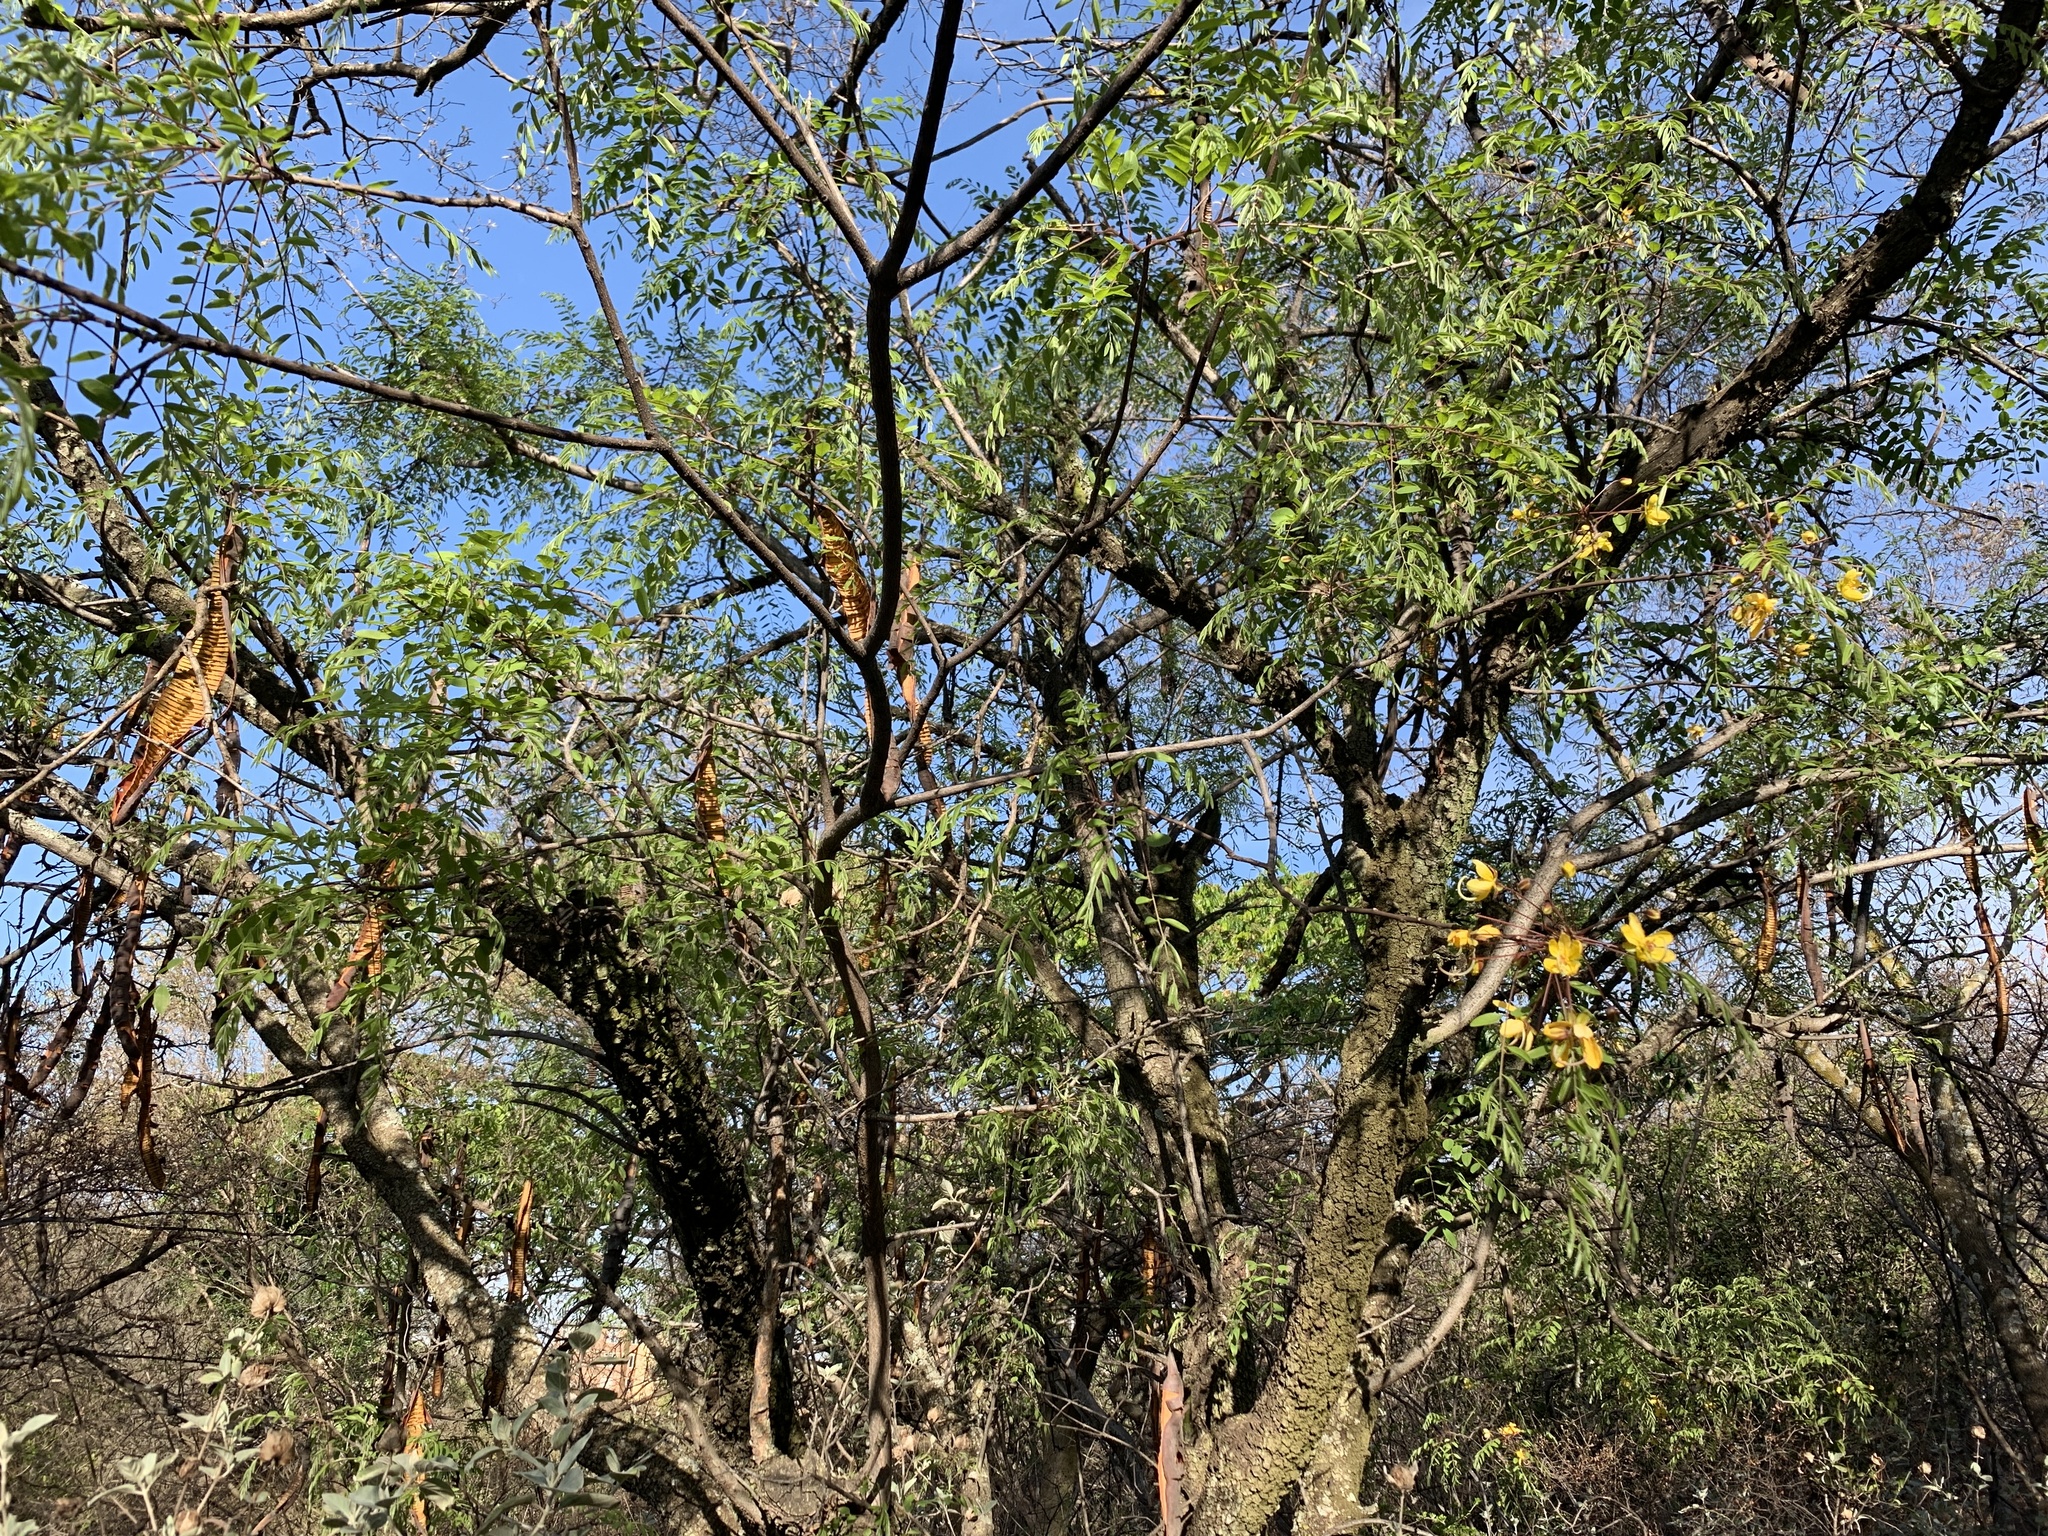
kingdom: Plantae
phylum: Tracheophyta
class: Magnoliopsida
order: Fabales
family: Fabaceae
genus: Cassia
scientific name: Cassia abbreviata
